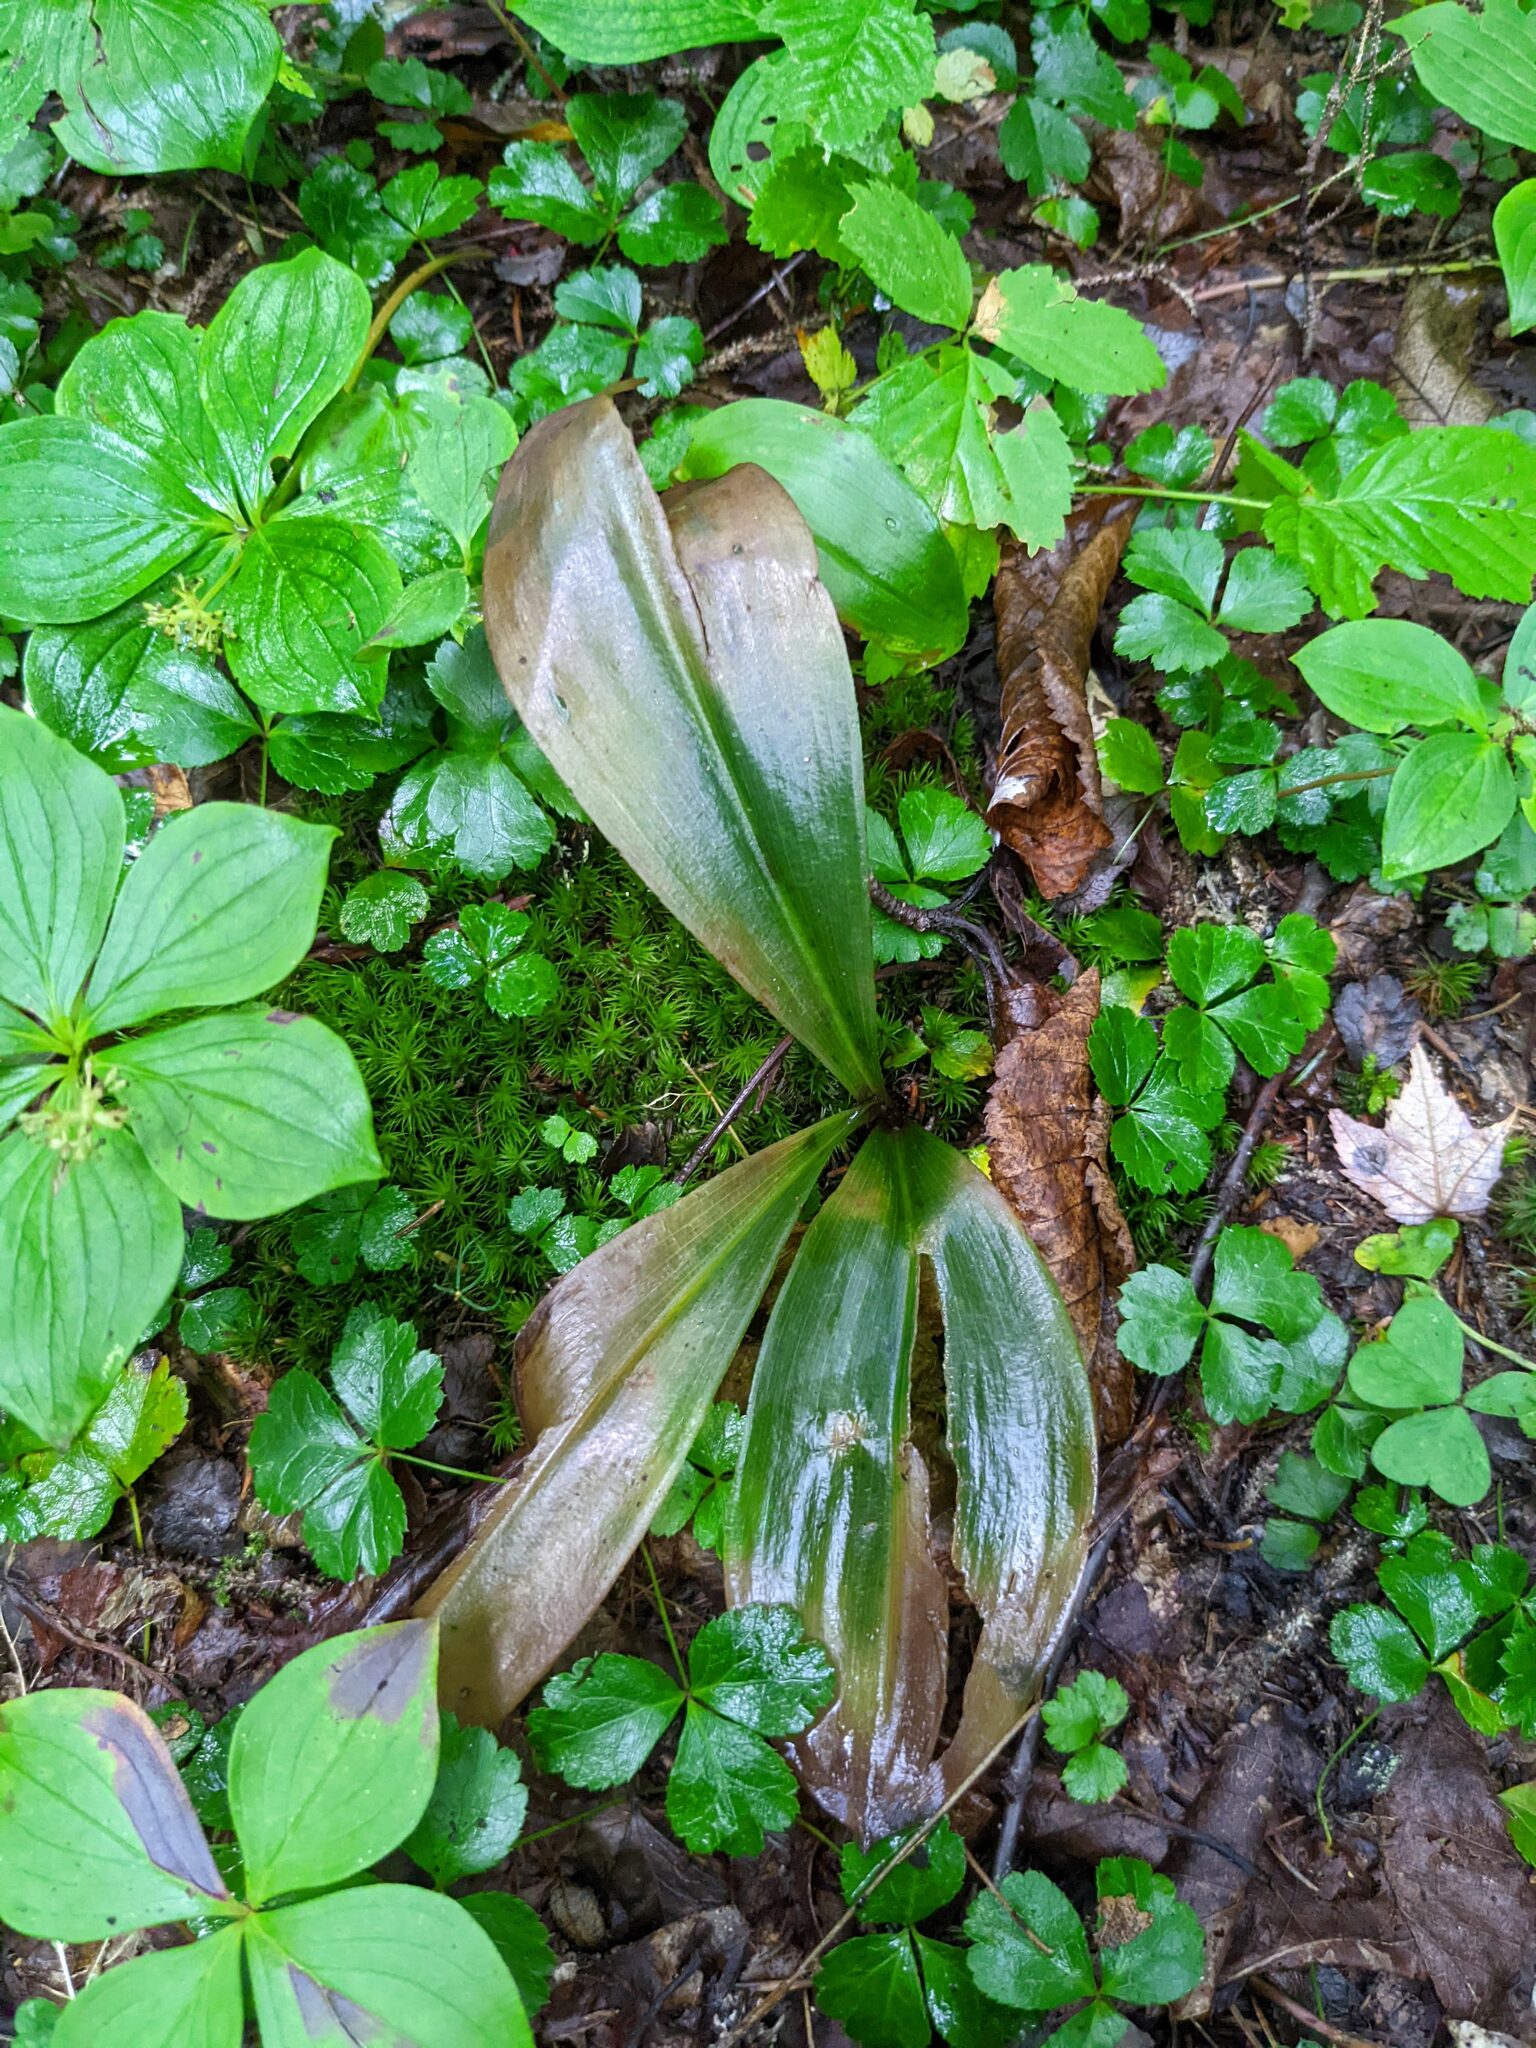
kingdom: Plantae
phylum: Tracheophyta
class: Liliopsida
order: Liliales
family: Liliaceae
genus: Clintonia
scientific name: Clintonia borealis
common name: Yellow clintonia
